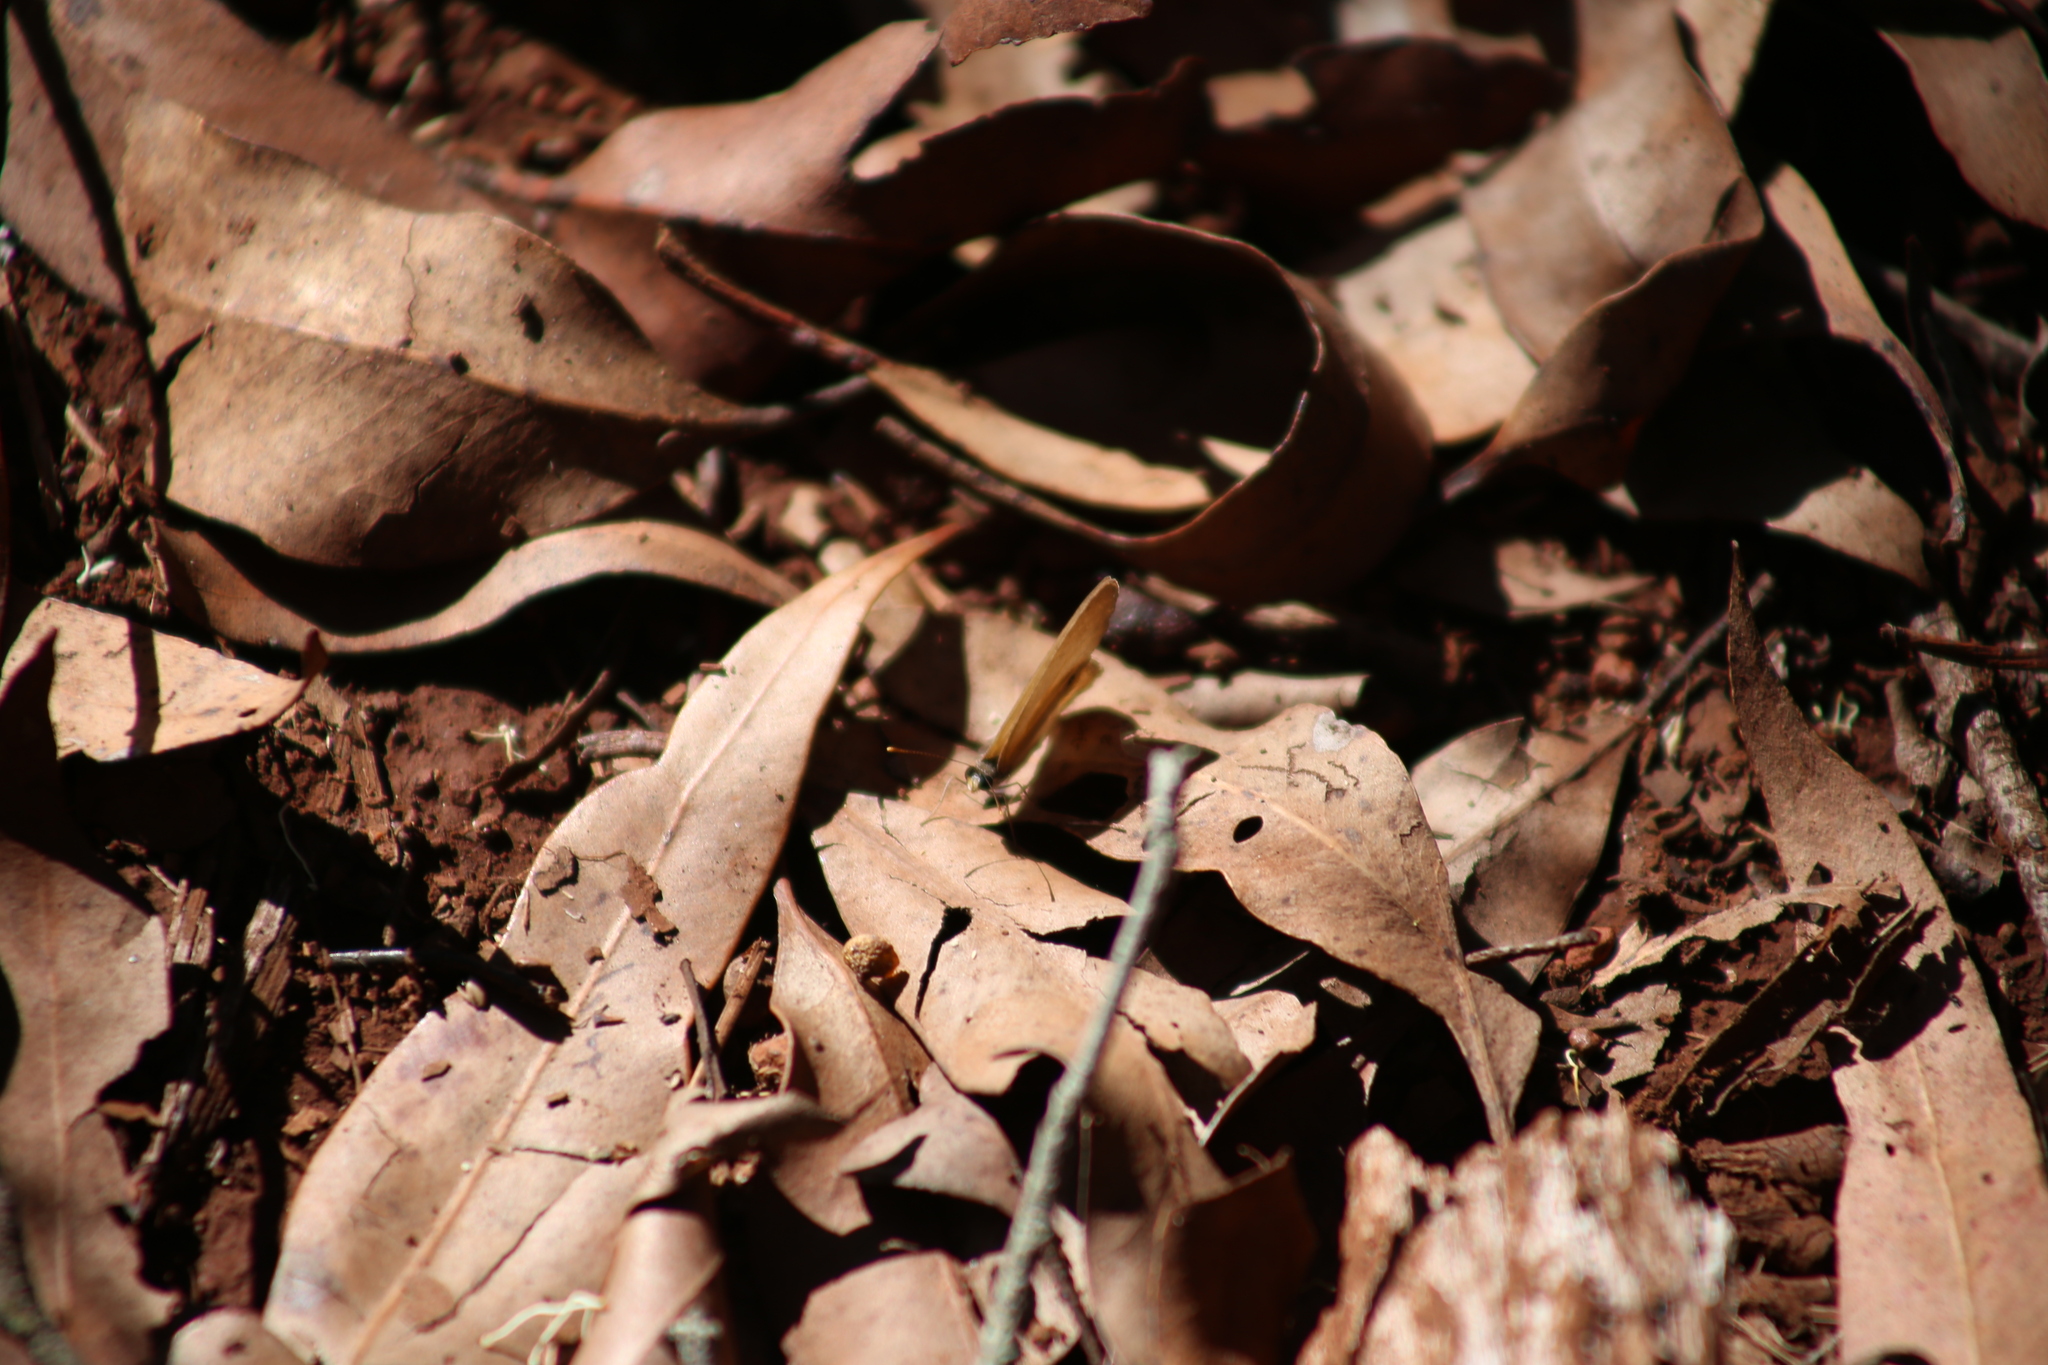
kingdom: Animalia
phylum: Arthropoda
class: Insecta
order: Lepidoptera
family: Nymphalidae
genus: Hypocysta
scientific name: Hypocysta adiante
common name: Orange ringlet
